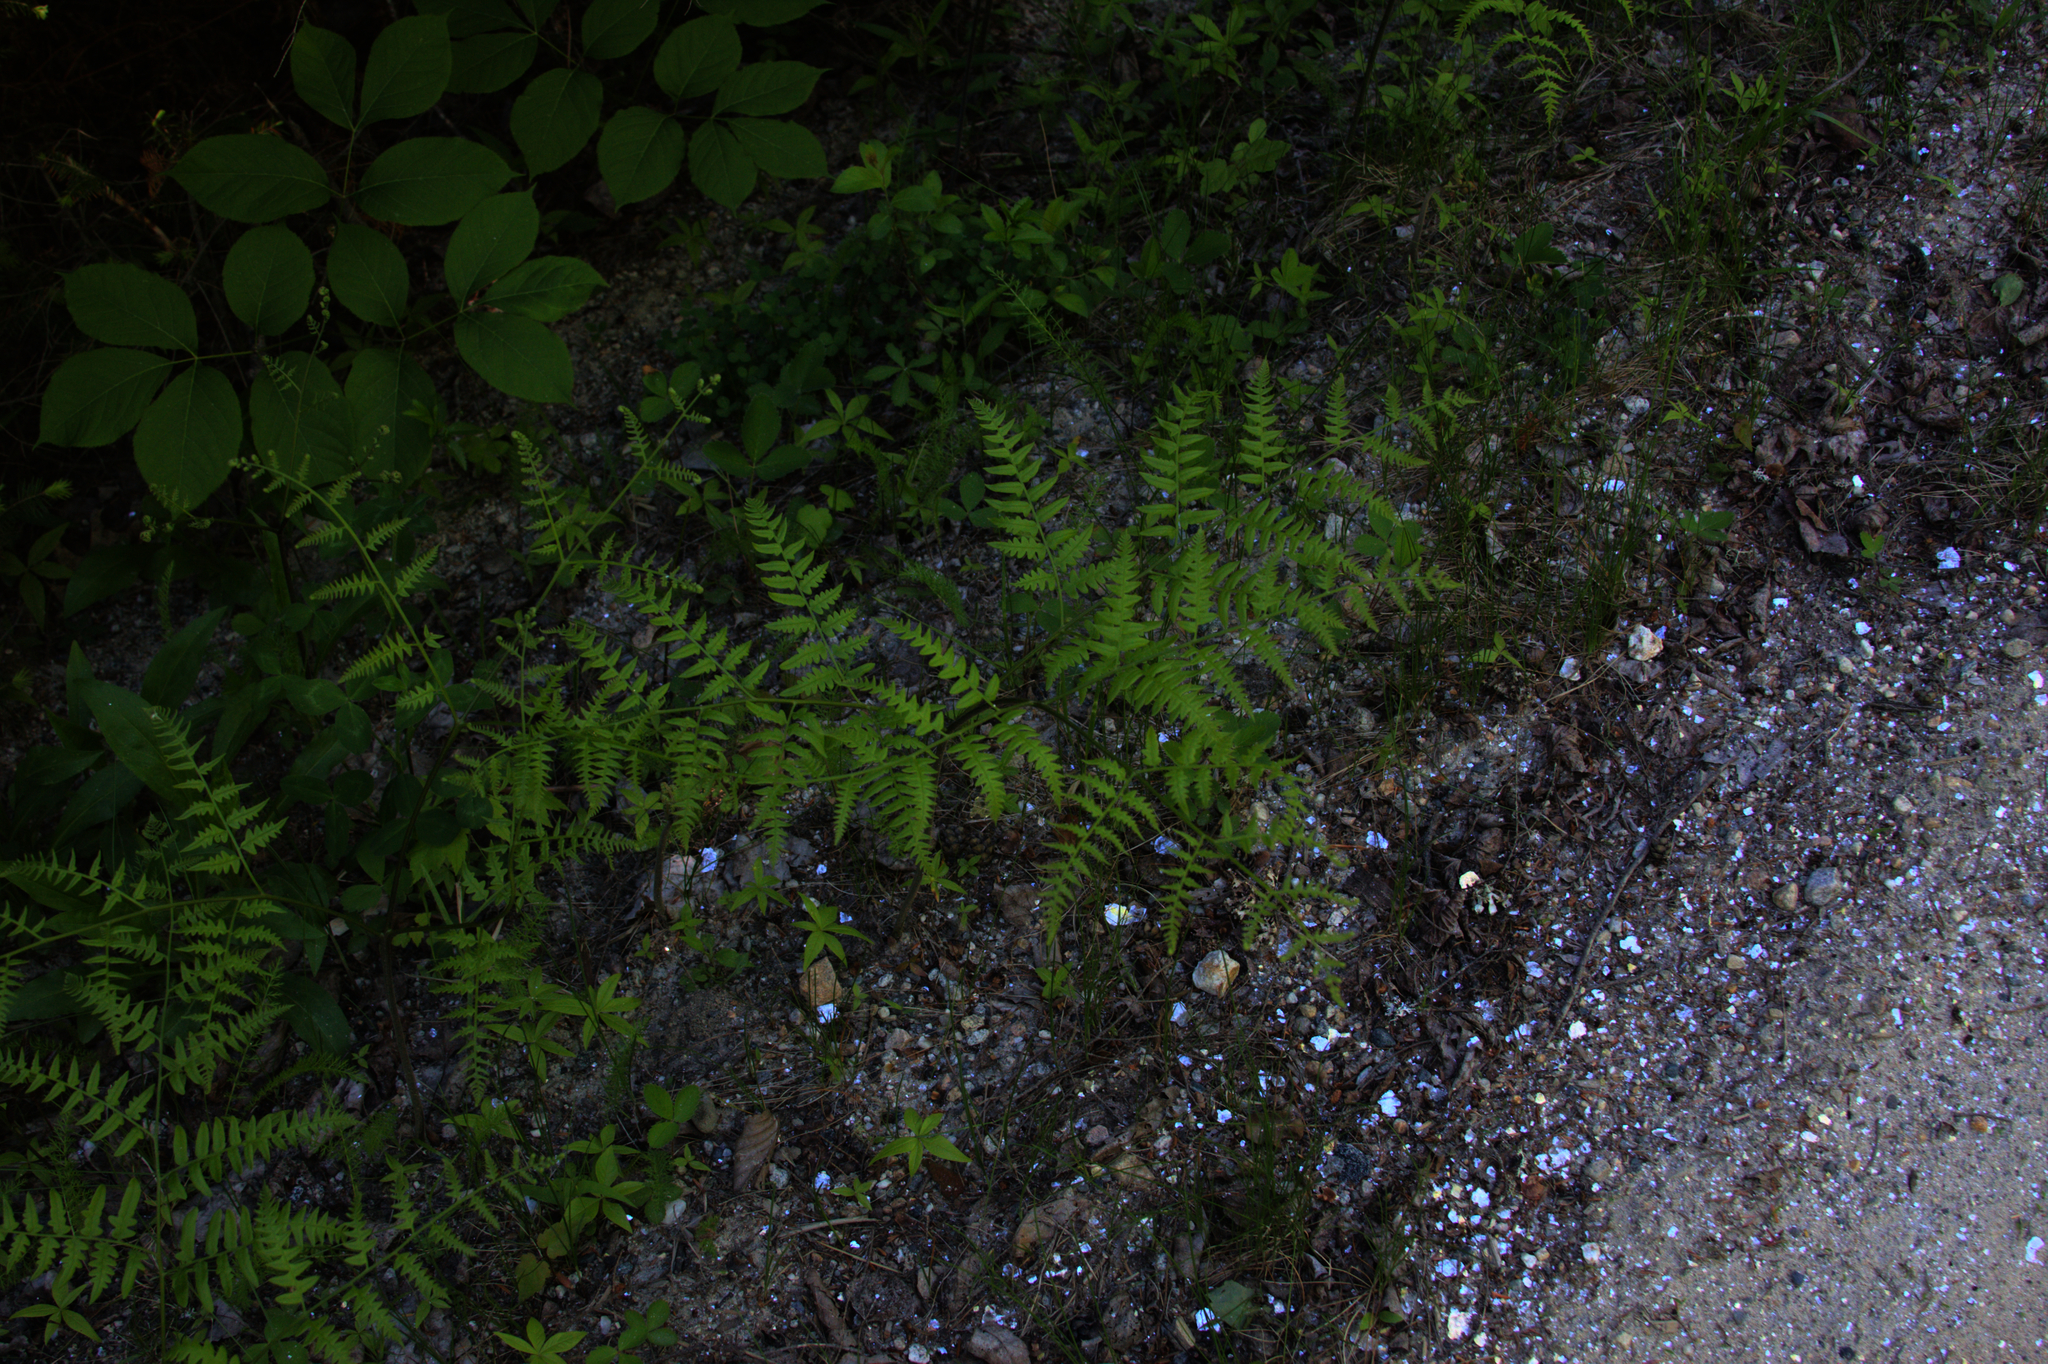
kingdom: Plantae
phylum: Tracheophyta
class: Polypodiopsida
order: Polypodiales
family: Dennstaedtiaceae
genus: Pteridium
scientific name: Pteridium aquilinum
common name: Bracken
